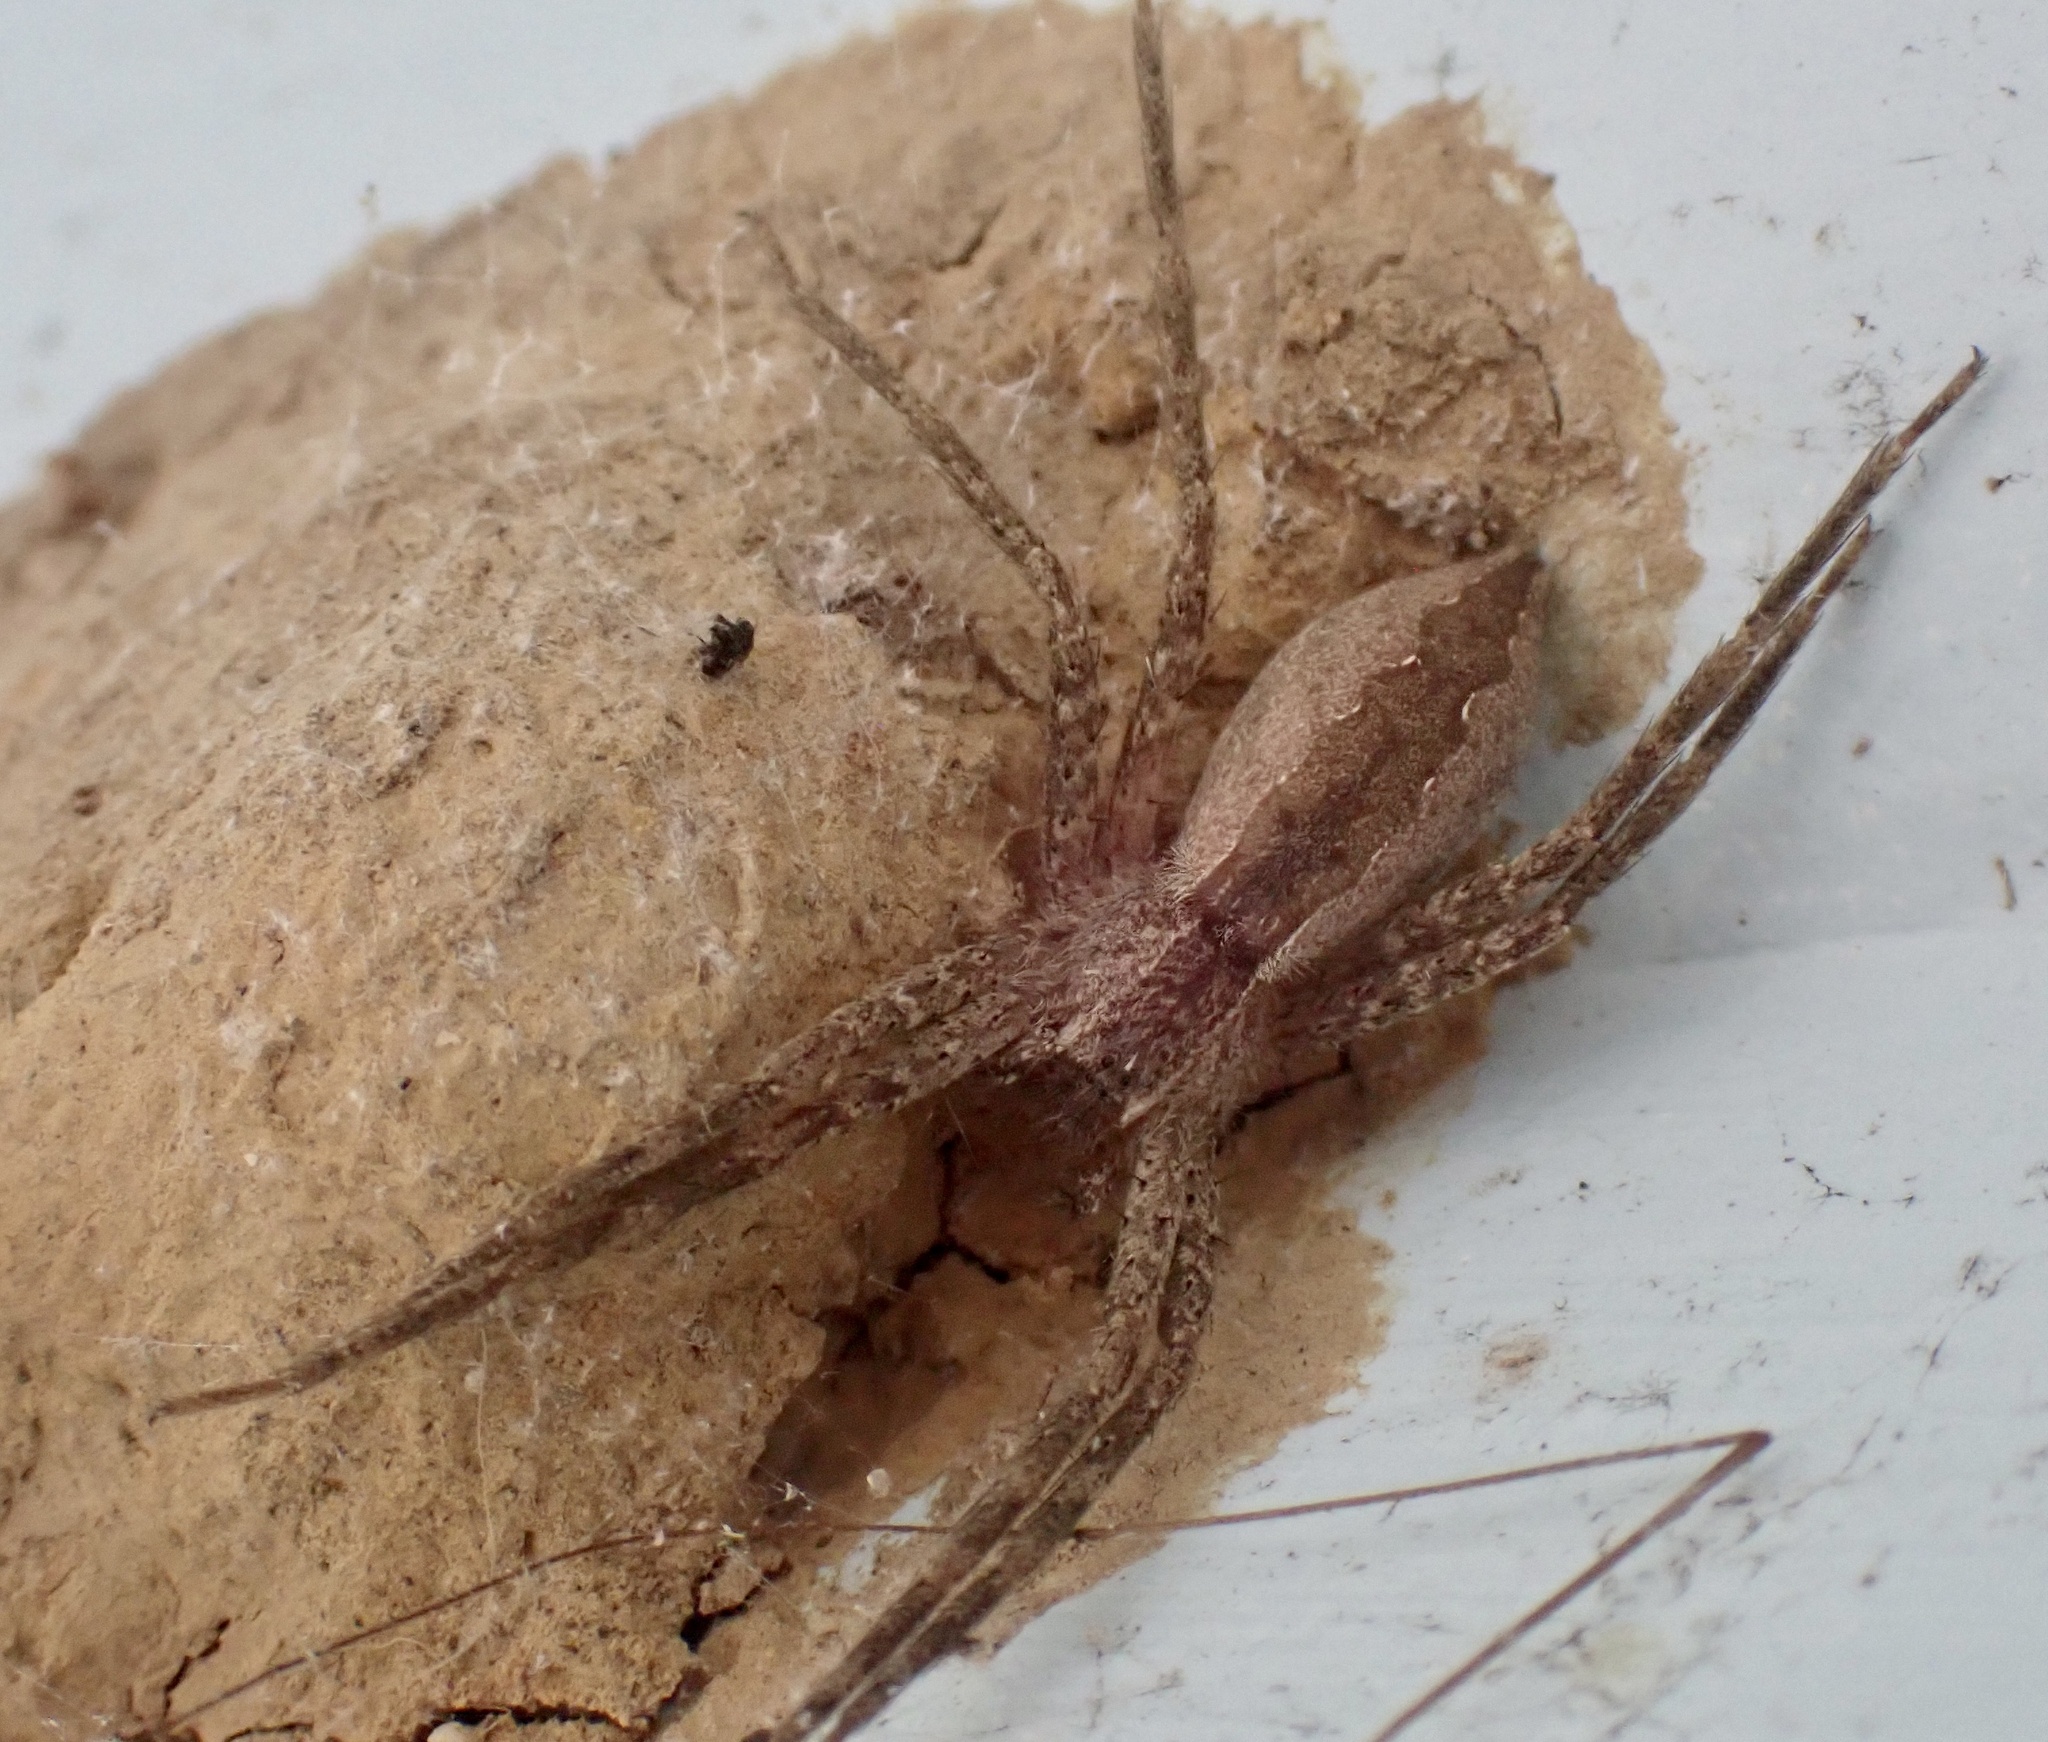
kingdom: Animalia
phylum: Arthropoda
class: Arachnida
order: Araneae
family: Pisauridae
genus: Pisaurina
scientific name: Pisaurina mira
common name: American nursery web spider
